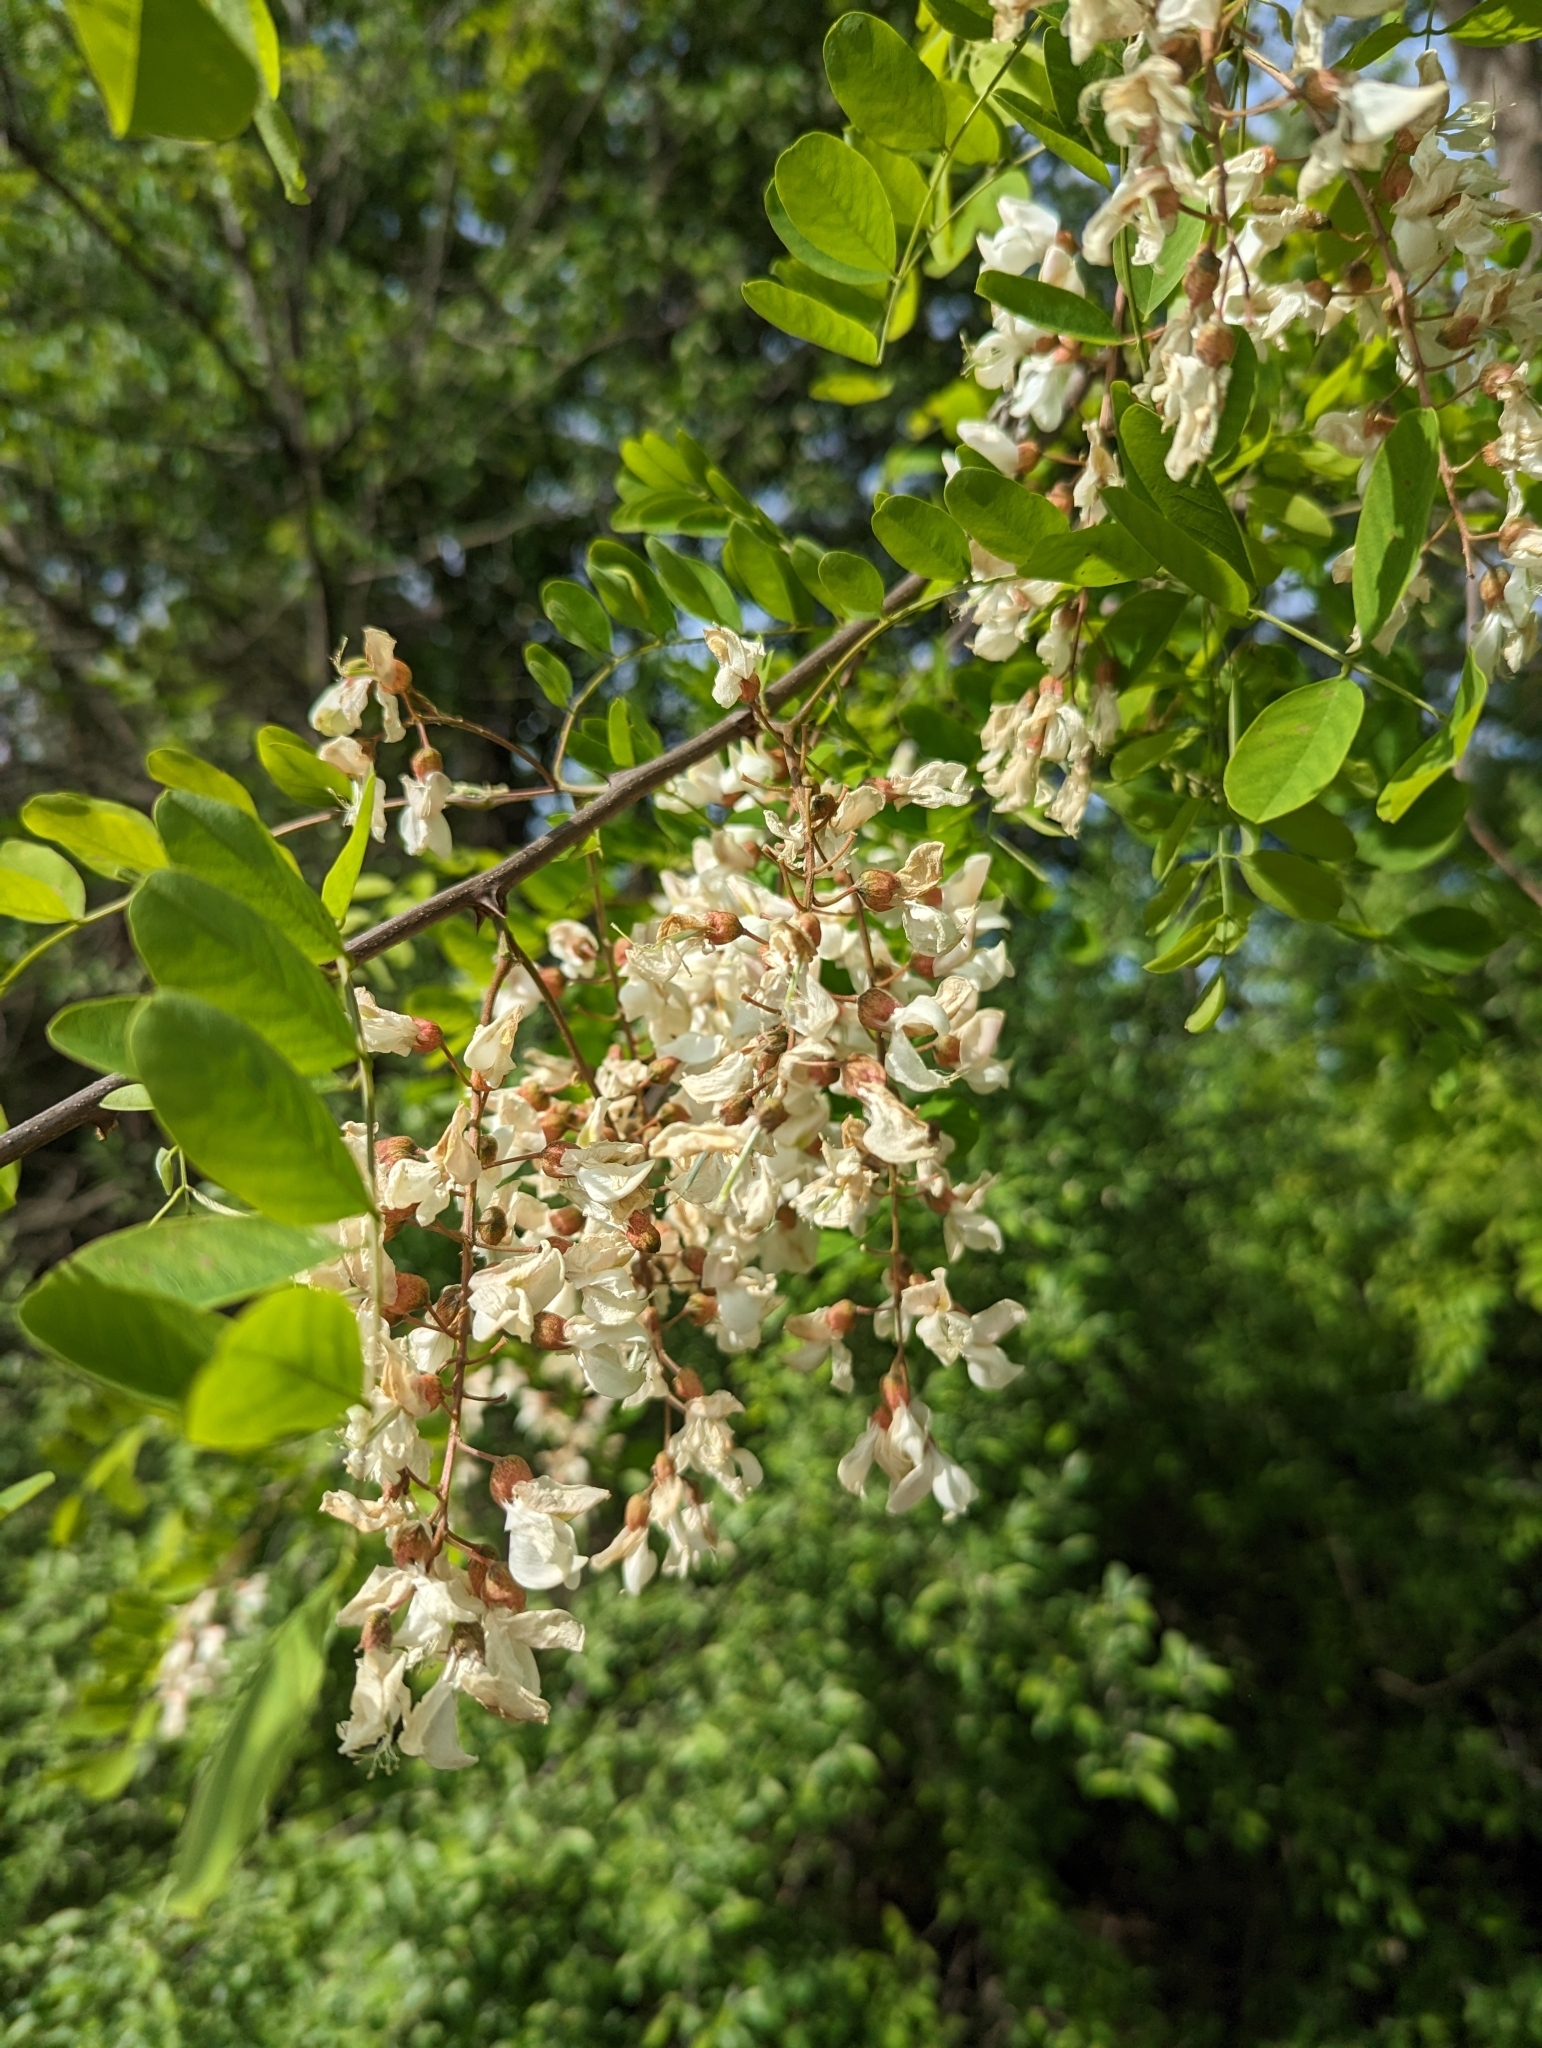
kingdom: Plantae
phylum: Tracheophyta
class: Magnoliopsida
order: Fabales
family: Fabaceae
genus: Robinia
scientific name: Robinia pseudoacacia
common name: Black locust
